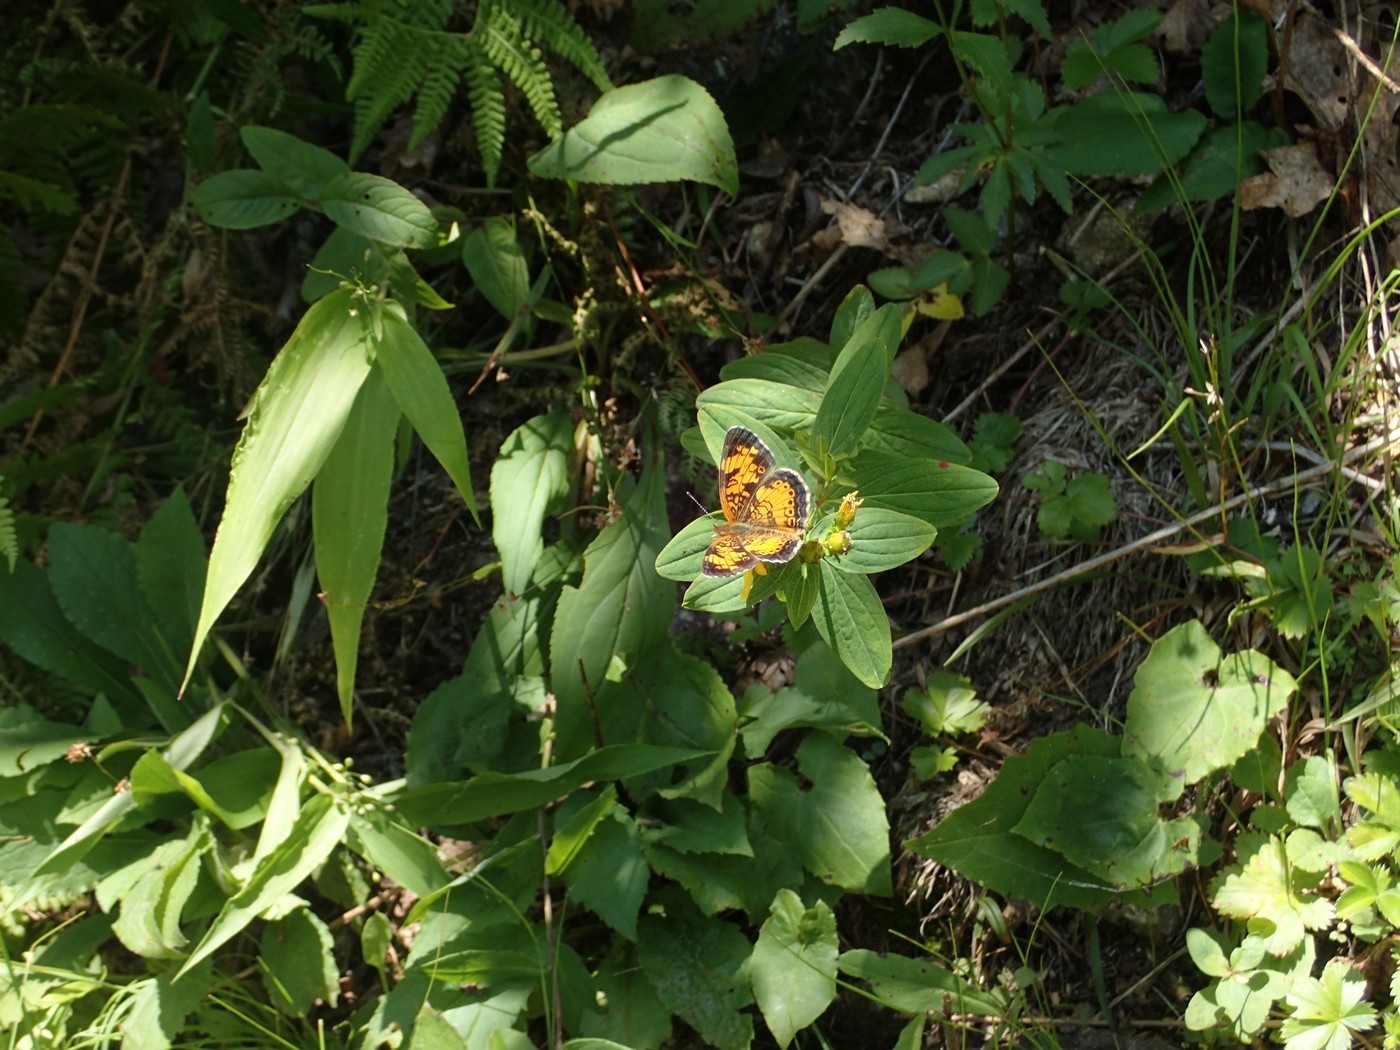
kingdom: Animalia
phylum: Arthropoda
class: Insecta
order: Lepidoptera
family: Nymphalidae
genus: Phyciodes
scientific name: Phyciodes tharos
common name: Pearl crescent
